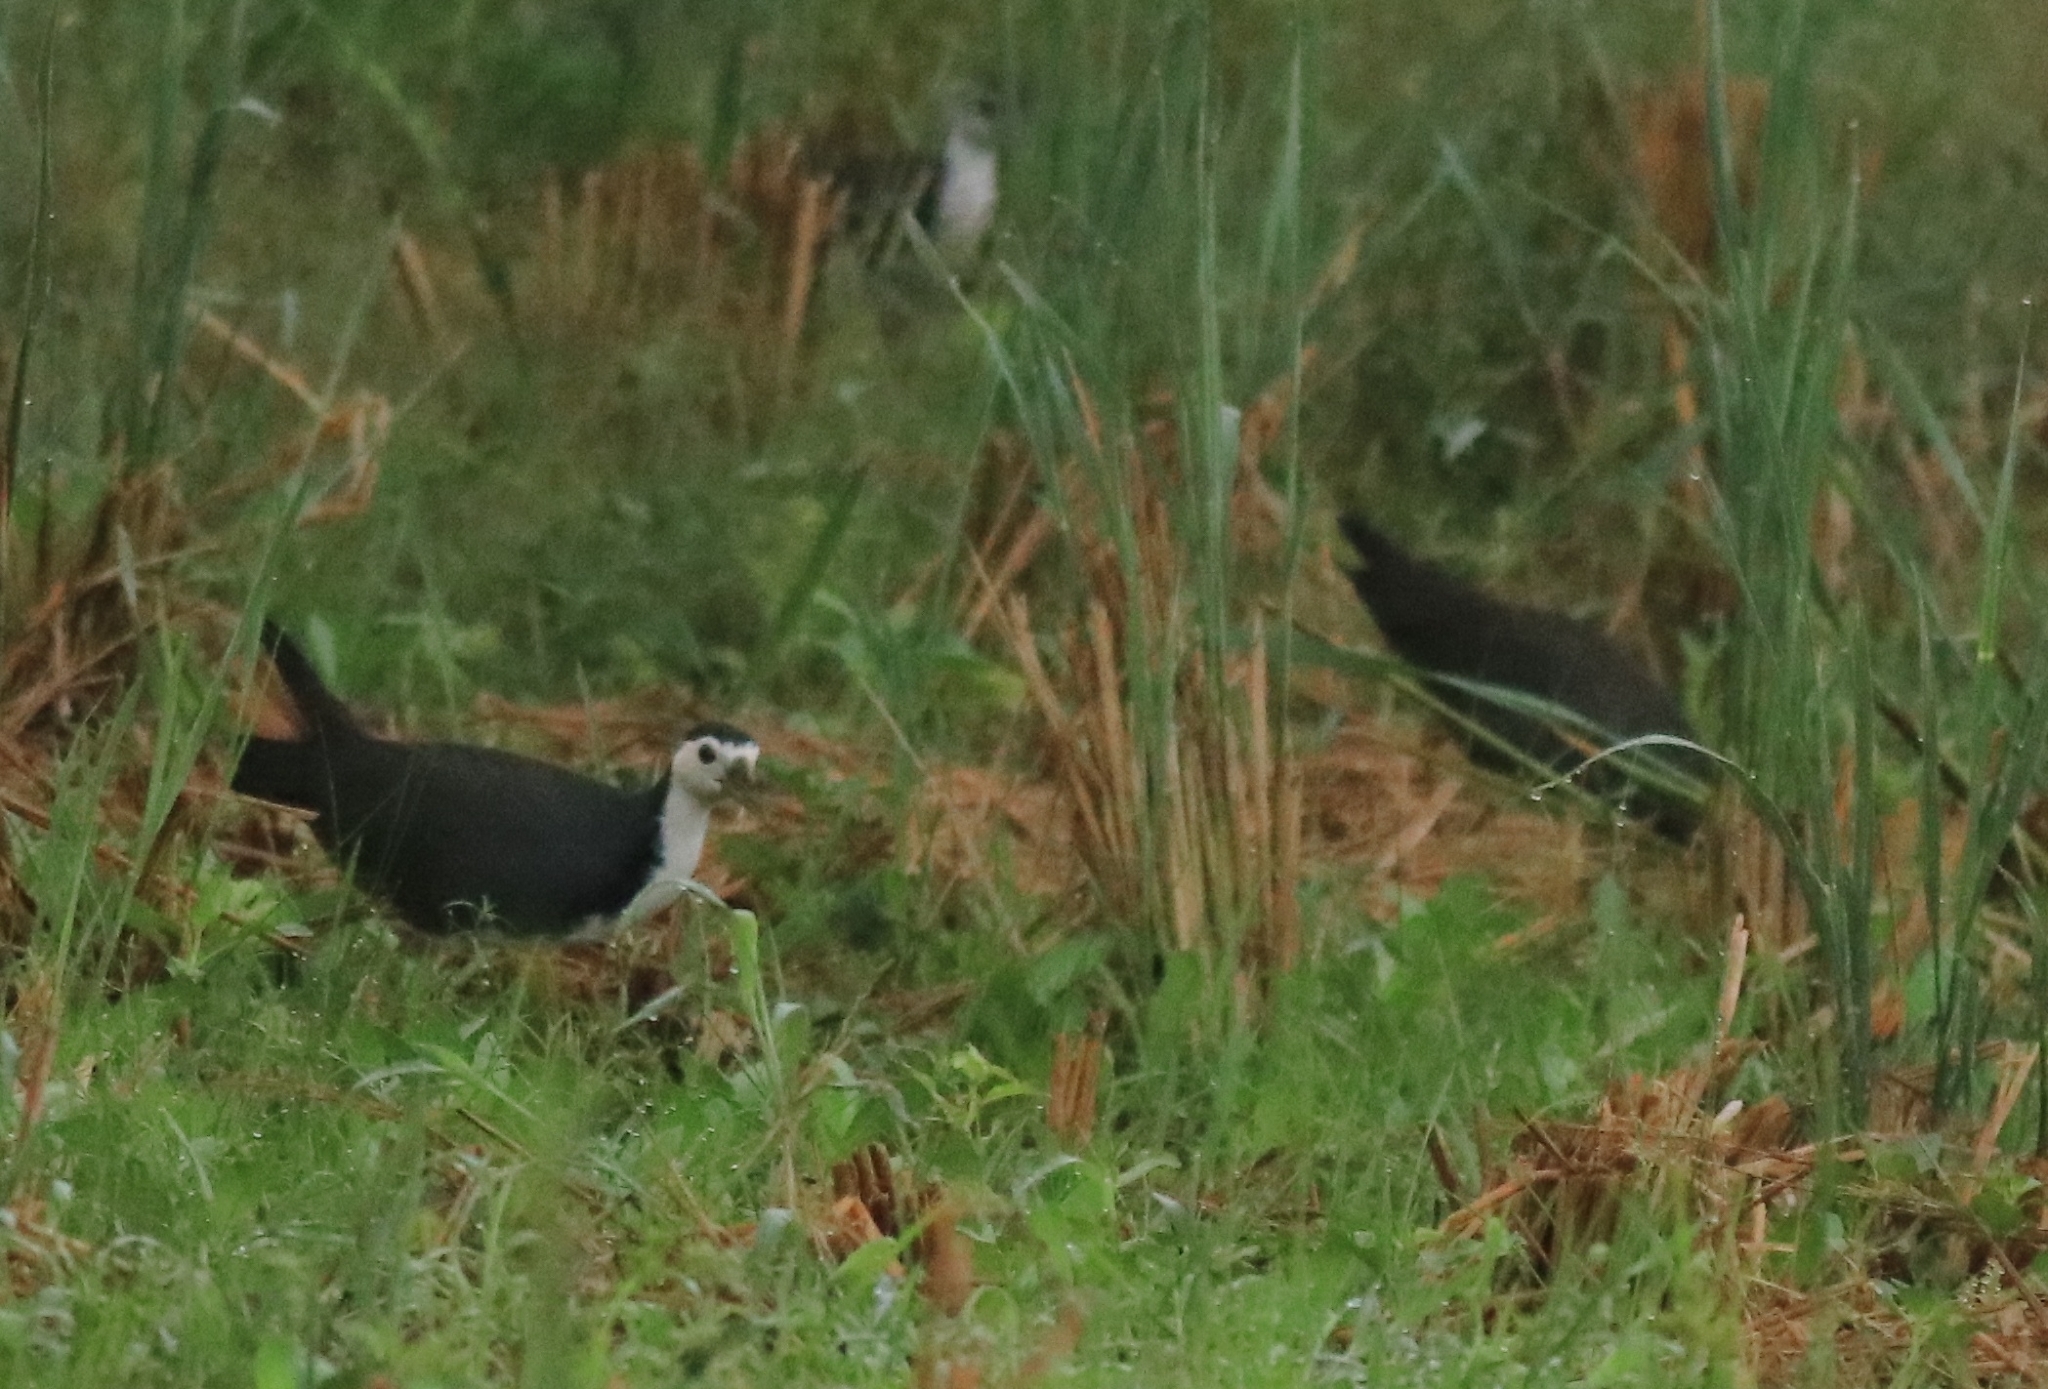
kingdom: Animalia
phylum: Chordata
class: Aves
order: Gruiformes
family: Rallidae
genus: Amaurornis
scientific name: Amaurornis phoenicurus
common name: White-breasted waterhen
